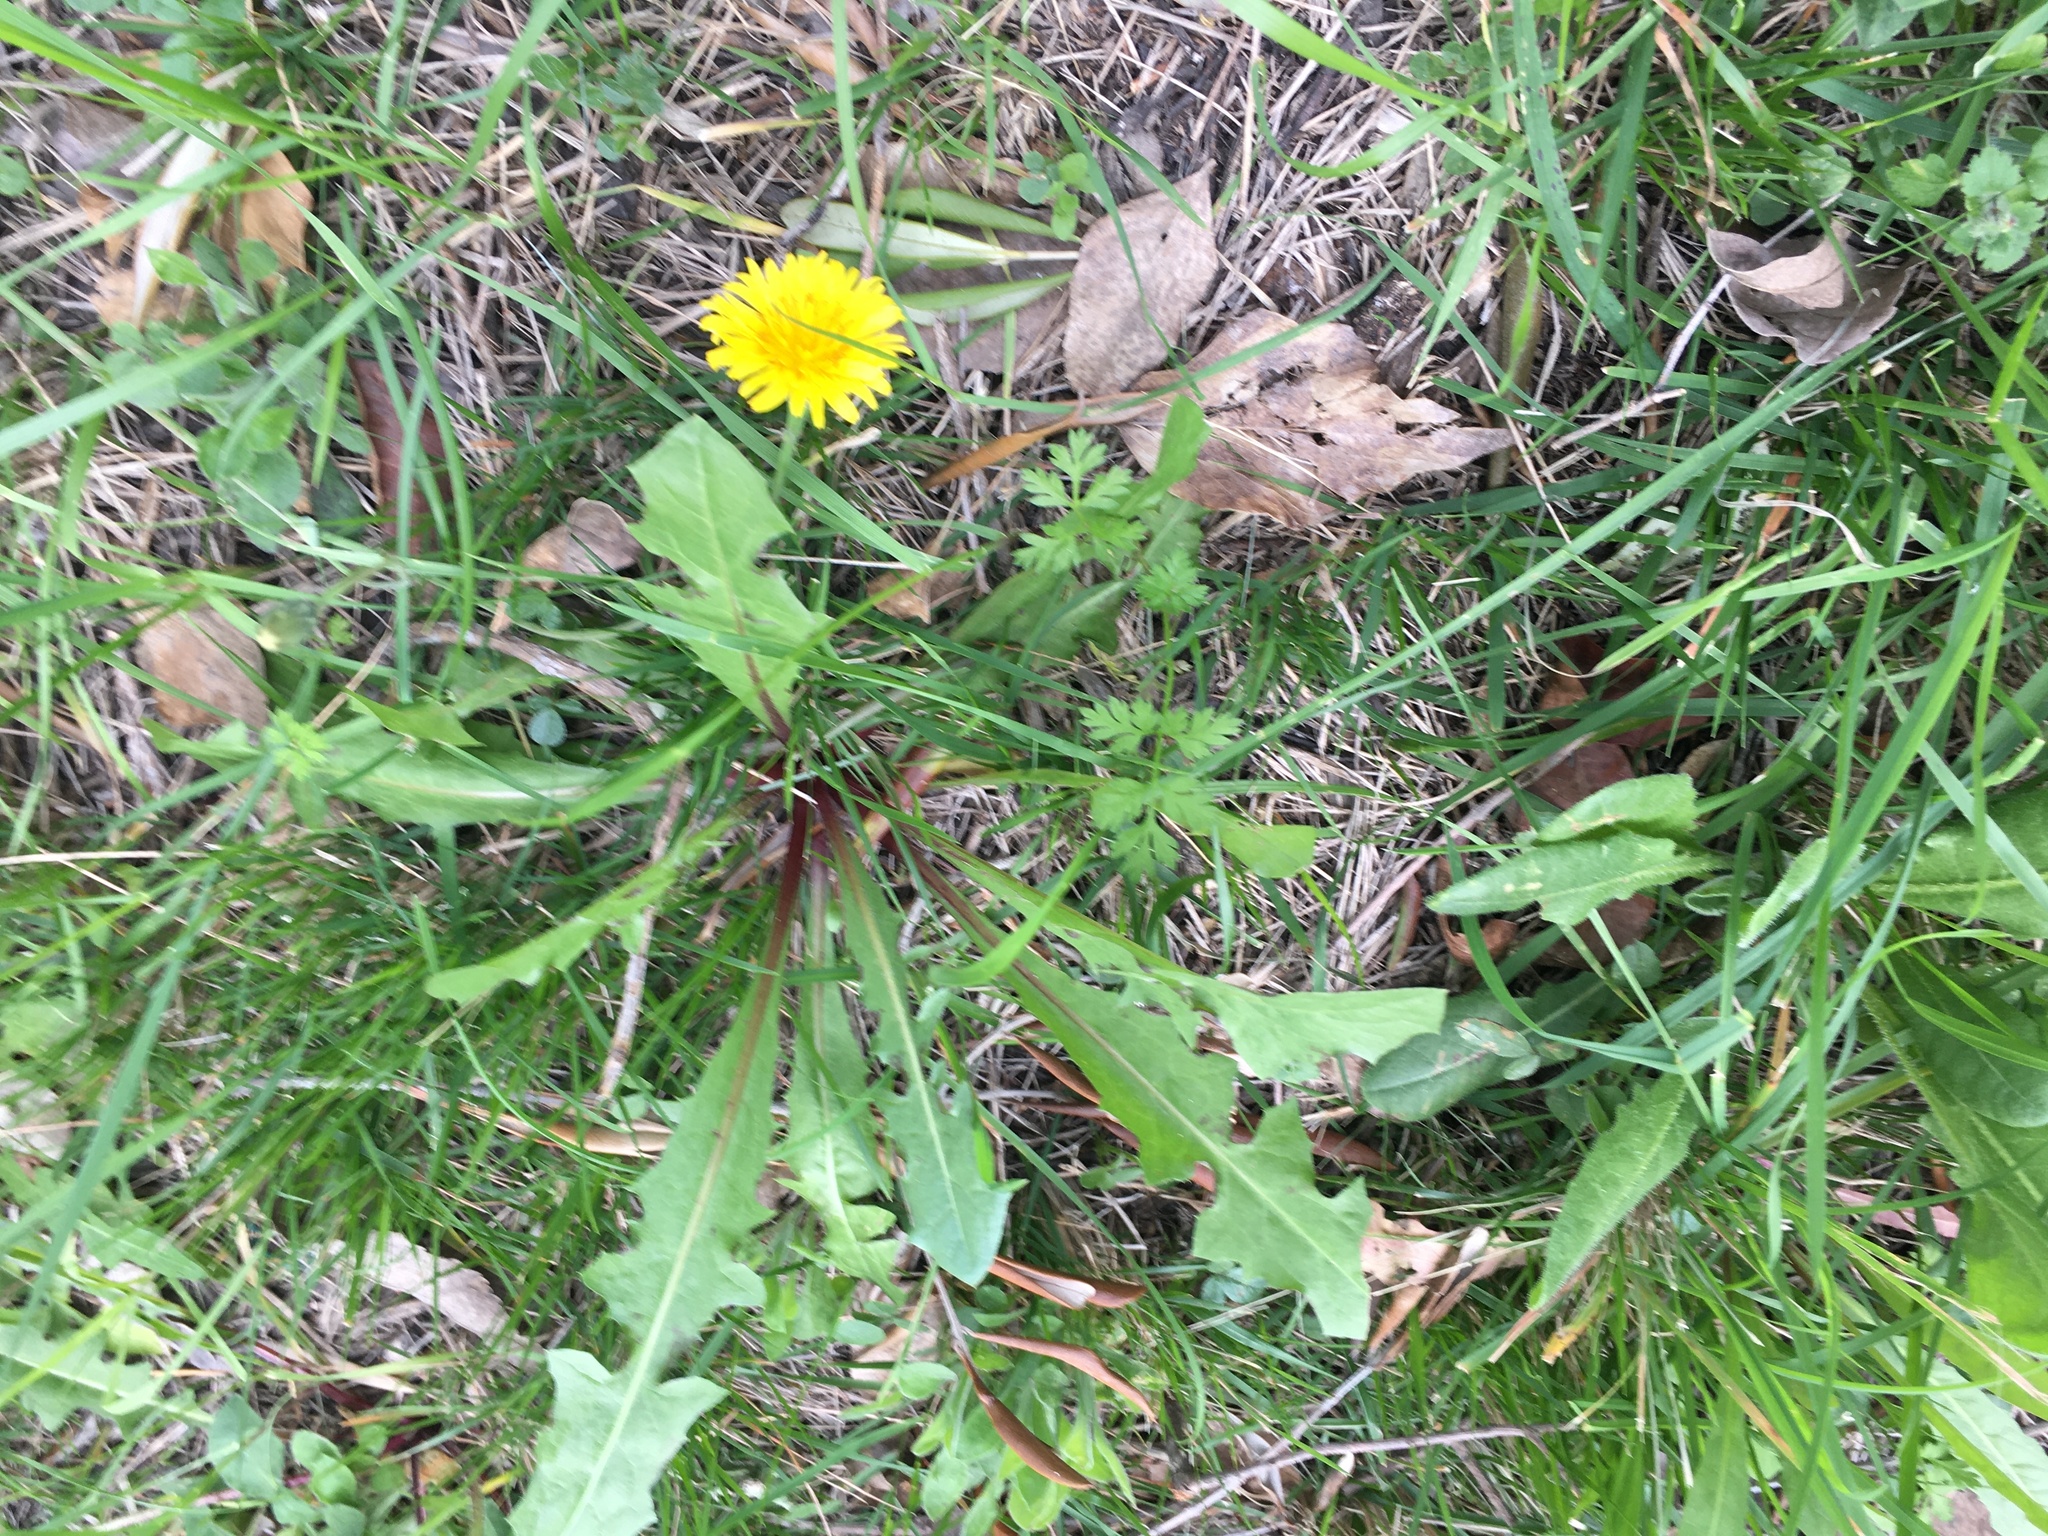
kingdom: Plantae
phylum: Tracheophyta
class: Magnoliopsida
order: Asterales
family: Asteraceae
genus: Taraxacum
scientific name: Taraxacum officinale
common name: Common dandelion
